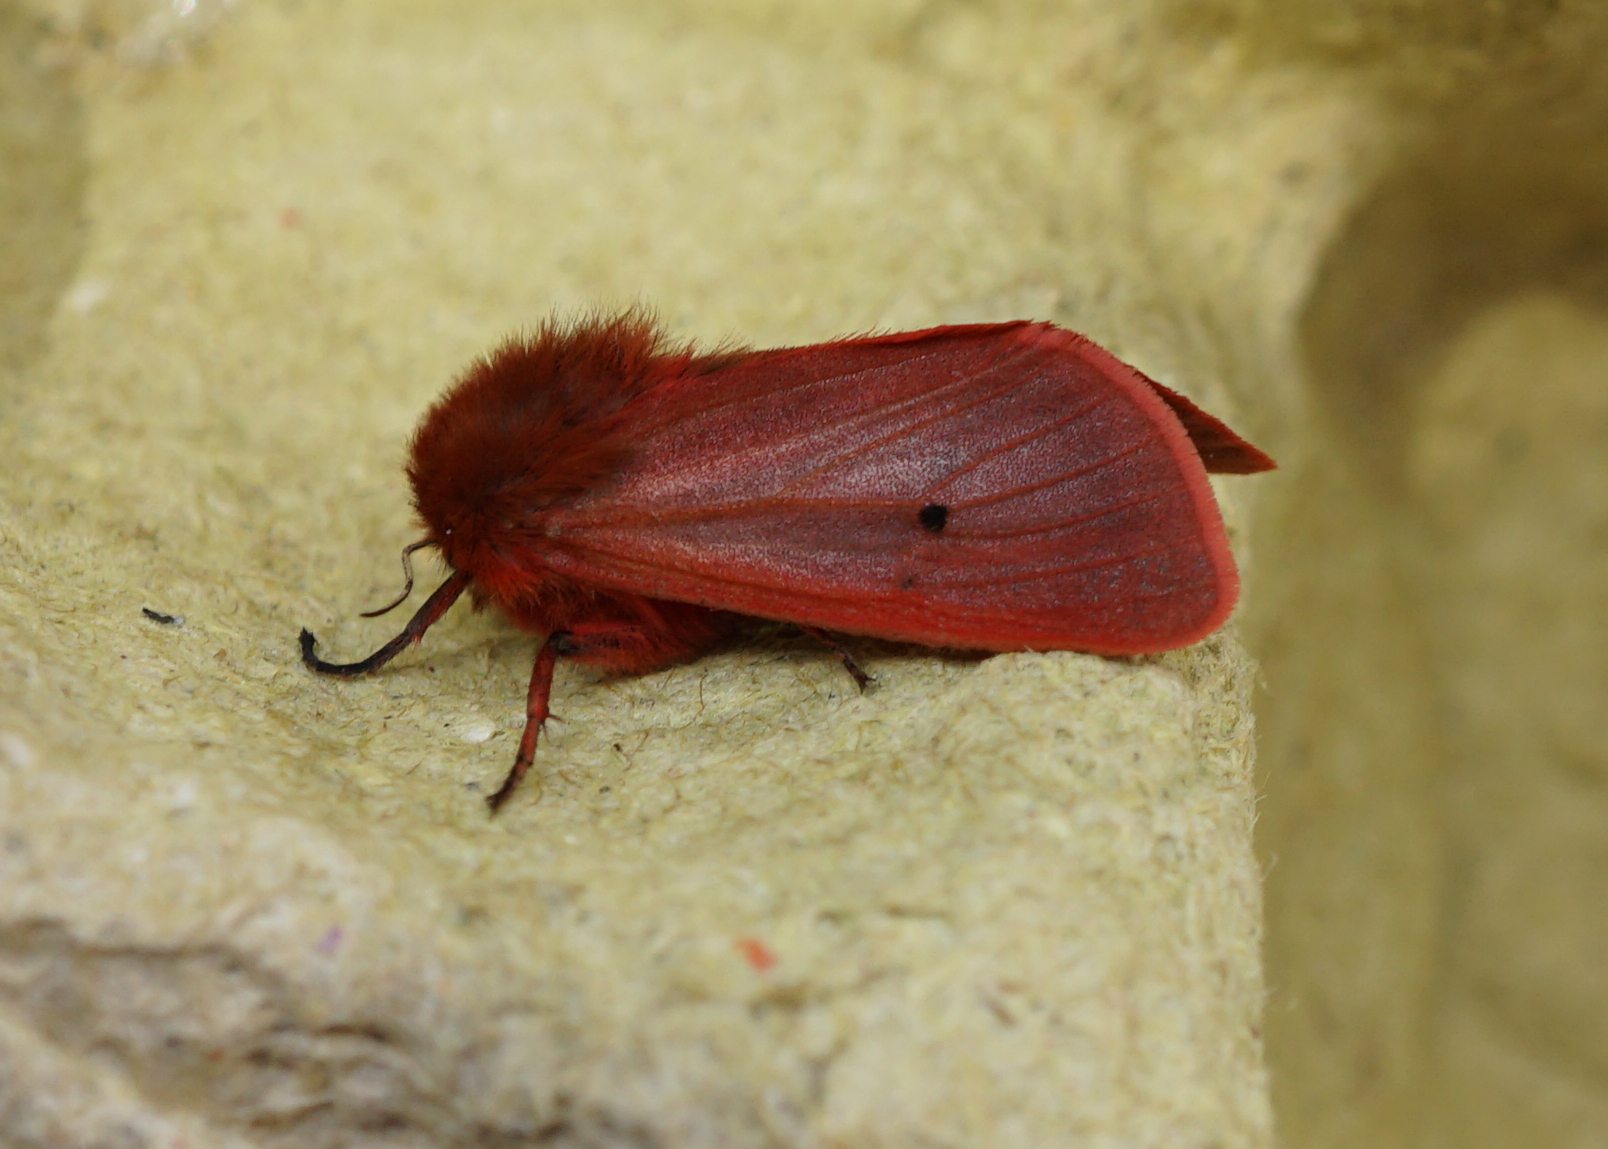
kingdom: Animalia
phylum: Arthropoda
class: Insecta
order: Lepidoptera
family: Erebidae
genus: Phragmatobia
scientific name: Phragmatobia fuliginosa
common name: Ruby tiger
